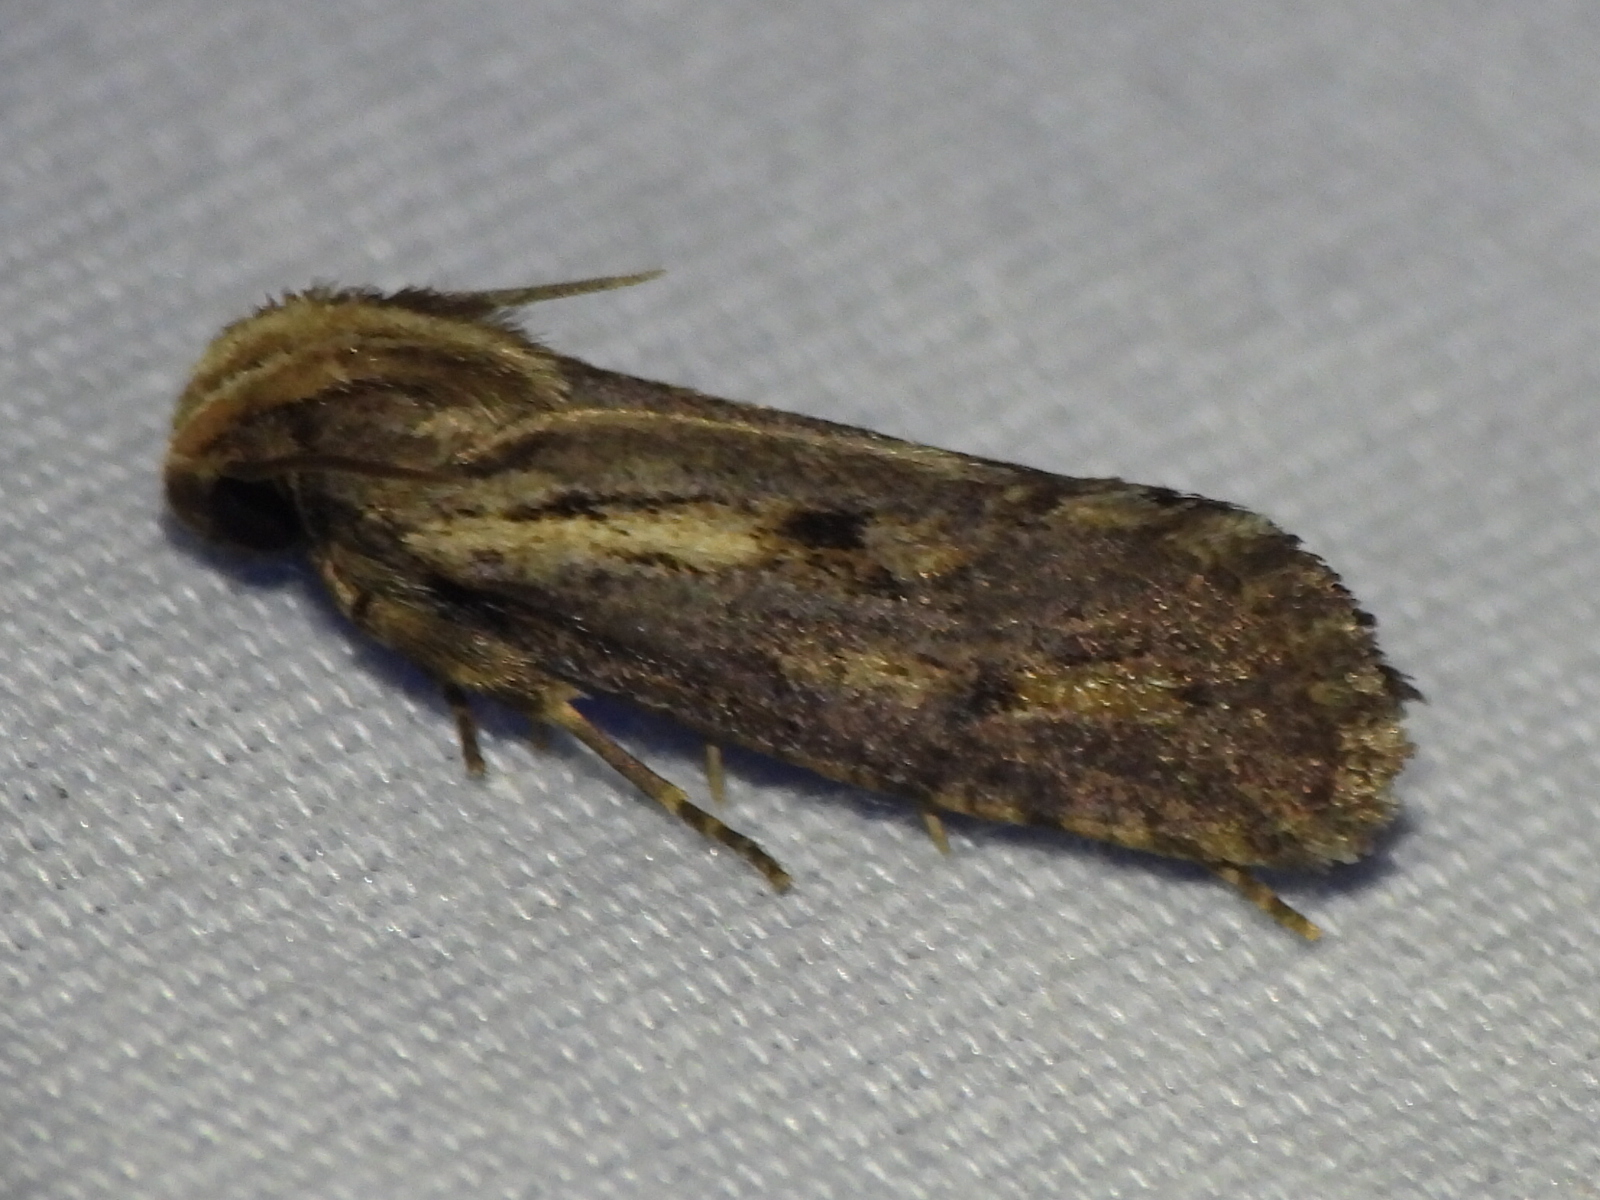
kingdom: Animalia
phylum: Arthropoda
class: Insecta
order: Lepidoptera
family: Tineidae
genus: Acrolophus
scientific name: Acrolophus popeanella
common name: Clemens' grass tubeworm moth
